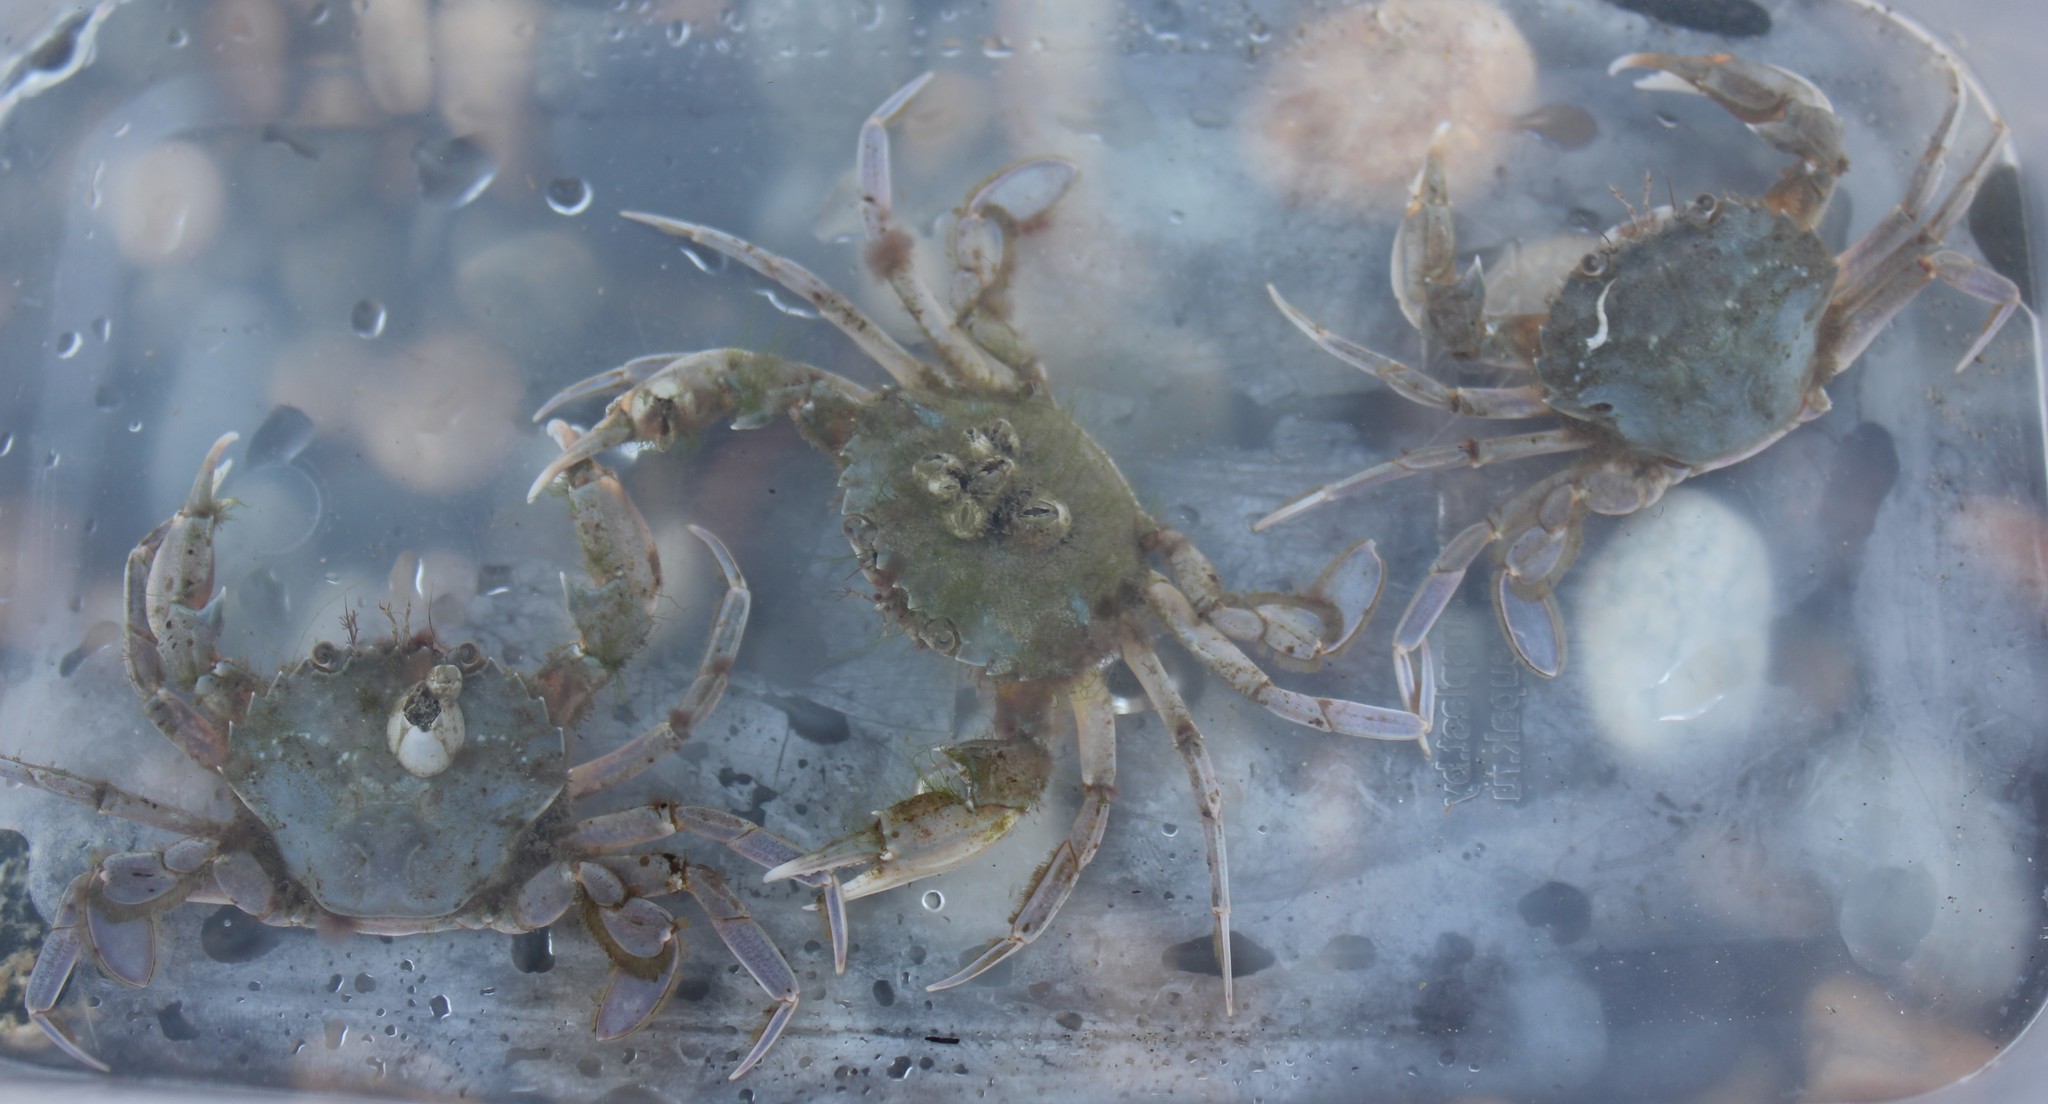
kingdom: Animalia
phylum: Arthropoda
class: Malacostraca
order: Decapoda
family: Polybiidae
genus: Liocarcinus
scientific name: Liocarcinus
